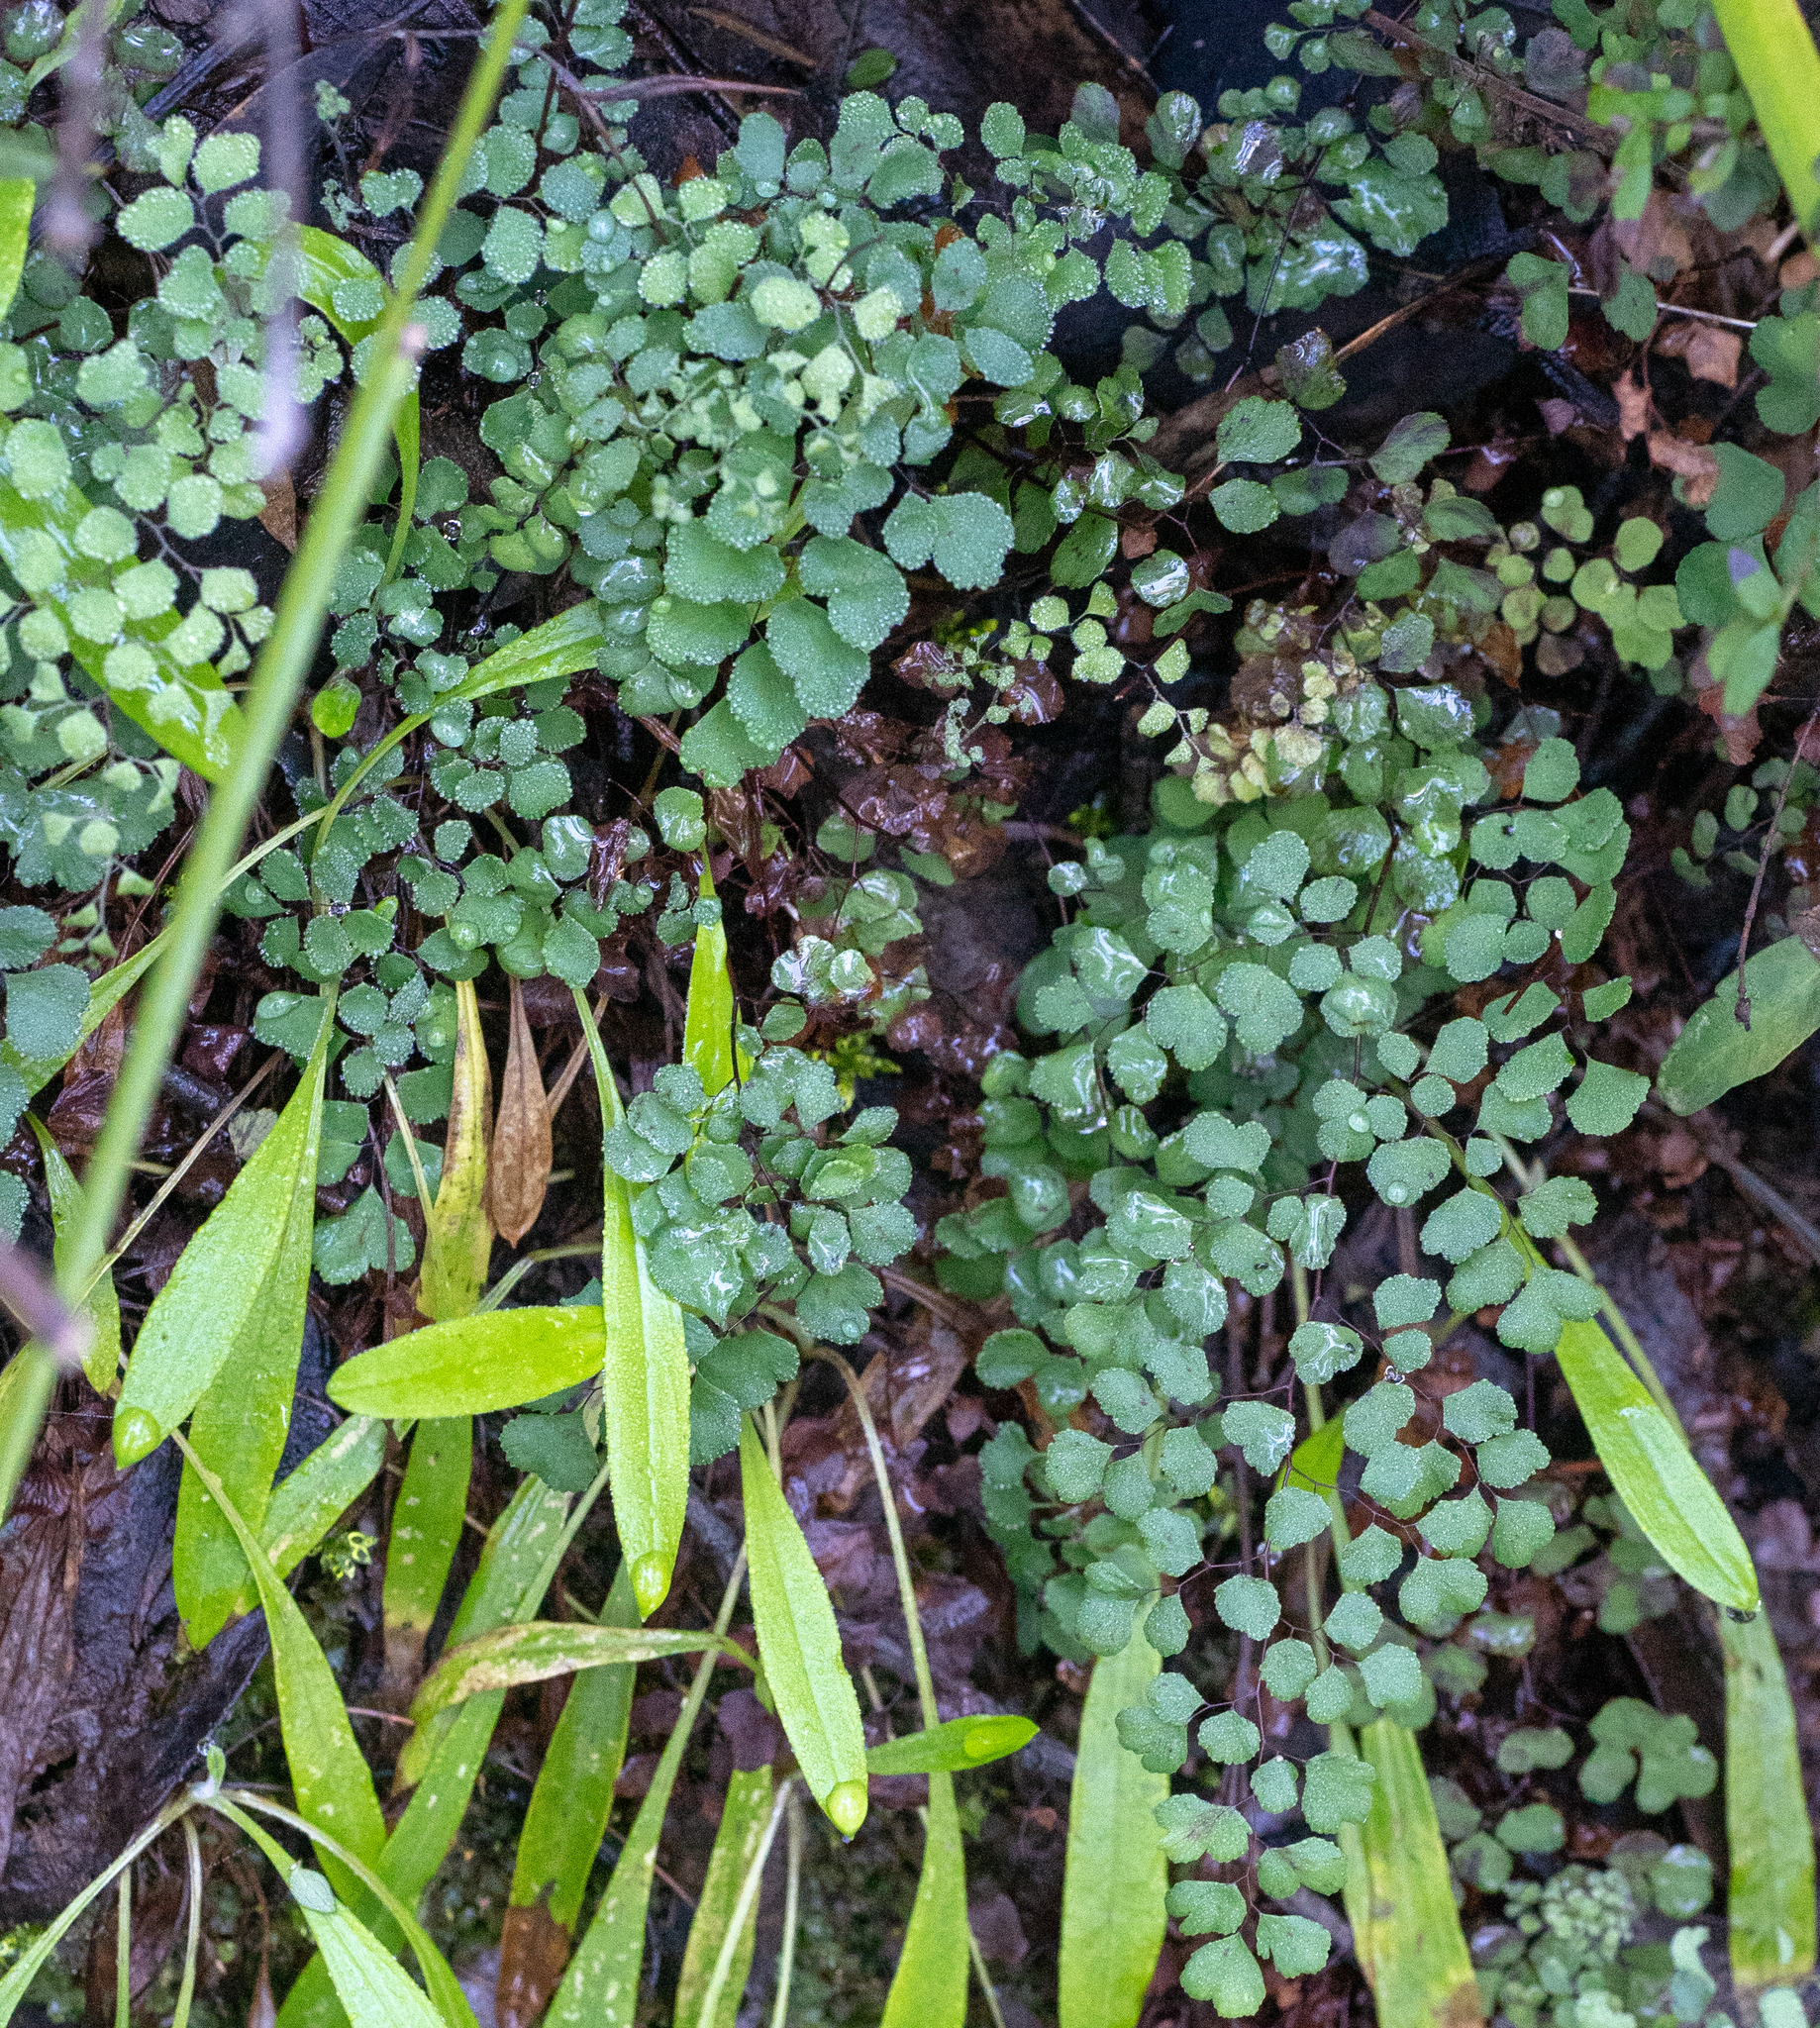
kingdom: Plantae
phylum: Tracheophyta
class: Polypodiopsida
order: Polypodiales
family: Pteridaceae
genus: Adiantum
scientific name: Adiantum aethiopicum
